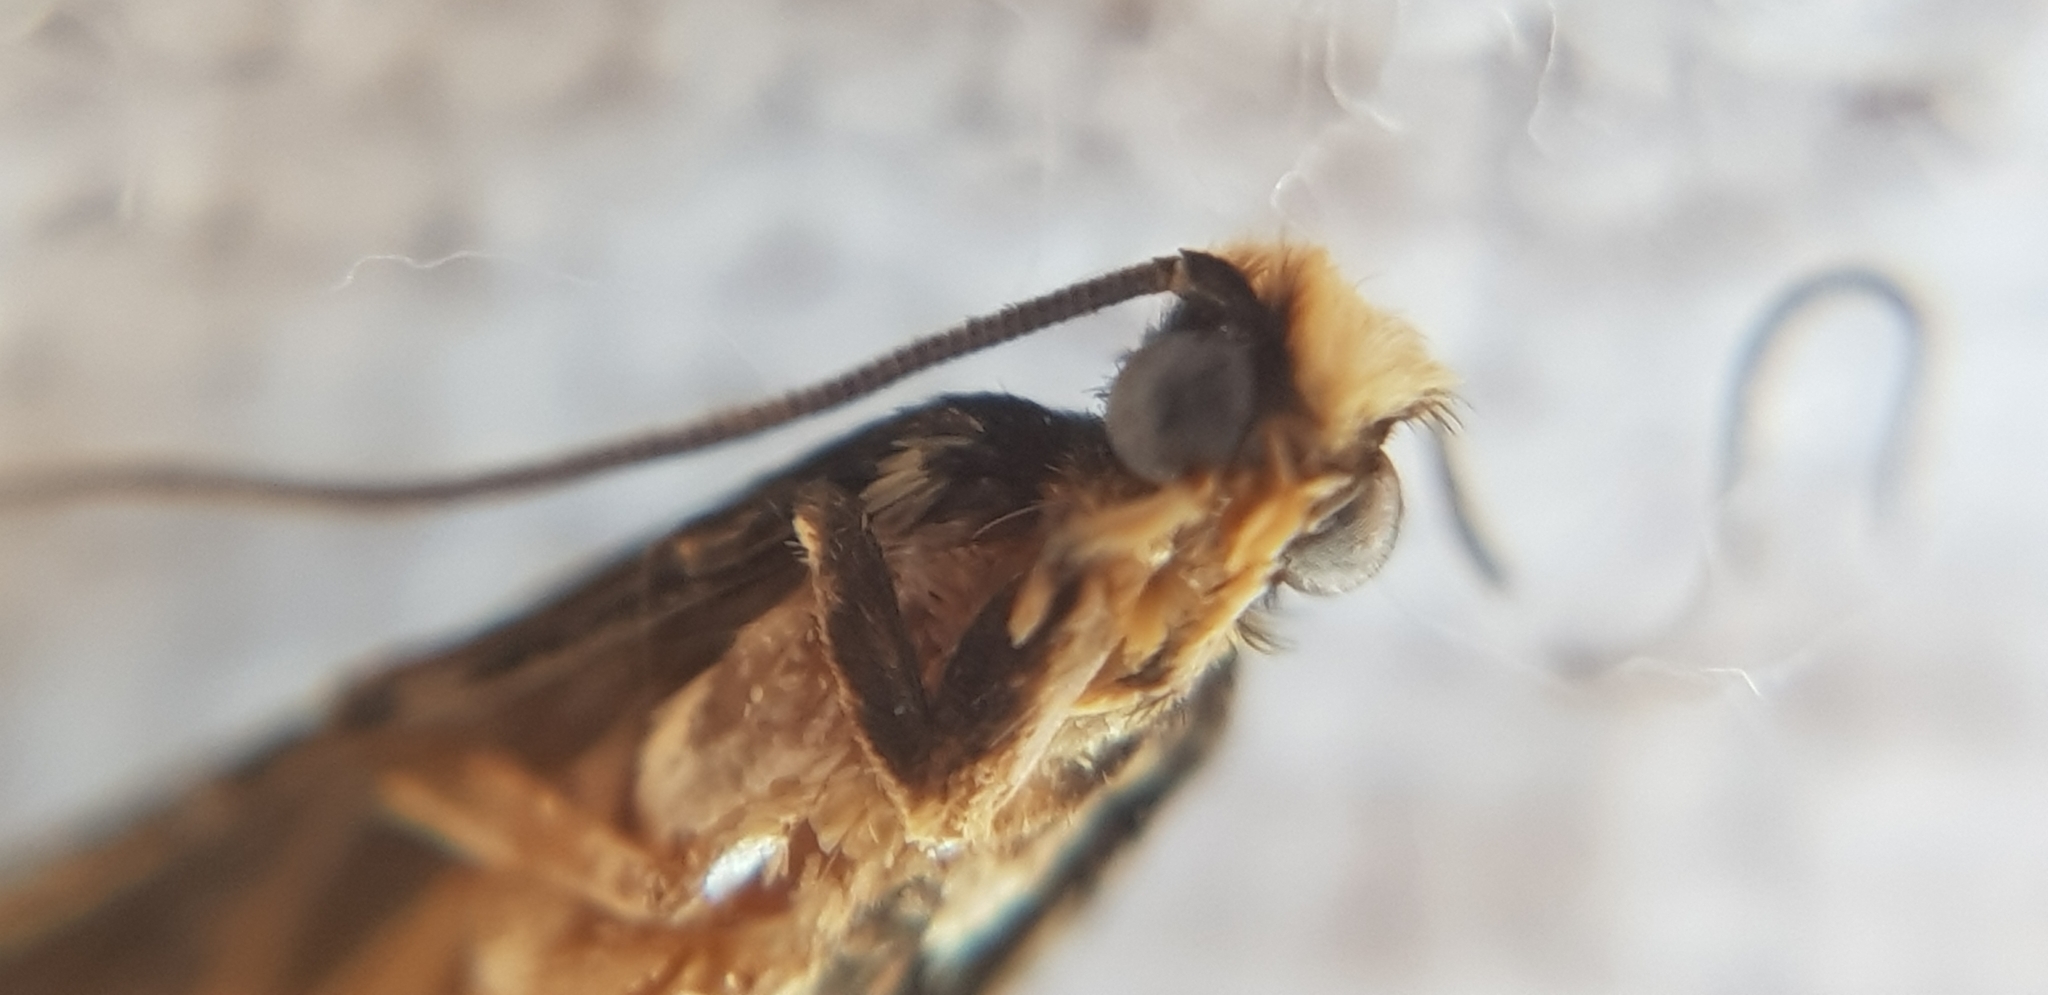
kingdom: Animalia
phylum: Arthropoda
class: Insecta
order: Lepidoptera
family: Tineidae
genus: Monopis
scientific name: Monopis ethelella
